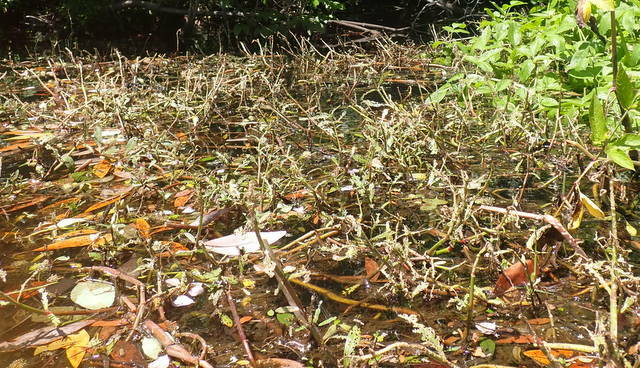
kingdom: Plantae
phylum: Tracheophyta
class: Magnoliopsida
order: Caryophyllales
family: Amaranthaceae
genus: Alternanthera
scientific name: Alternanthera philoxeroides
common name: Alligatorweed
